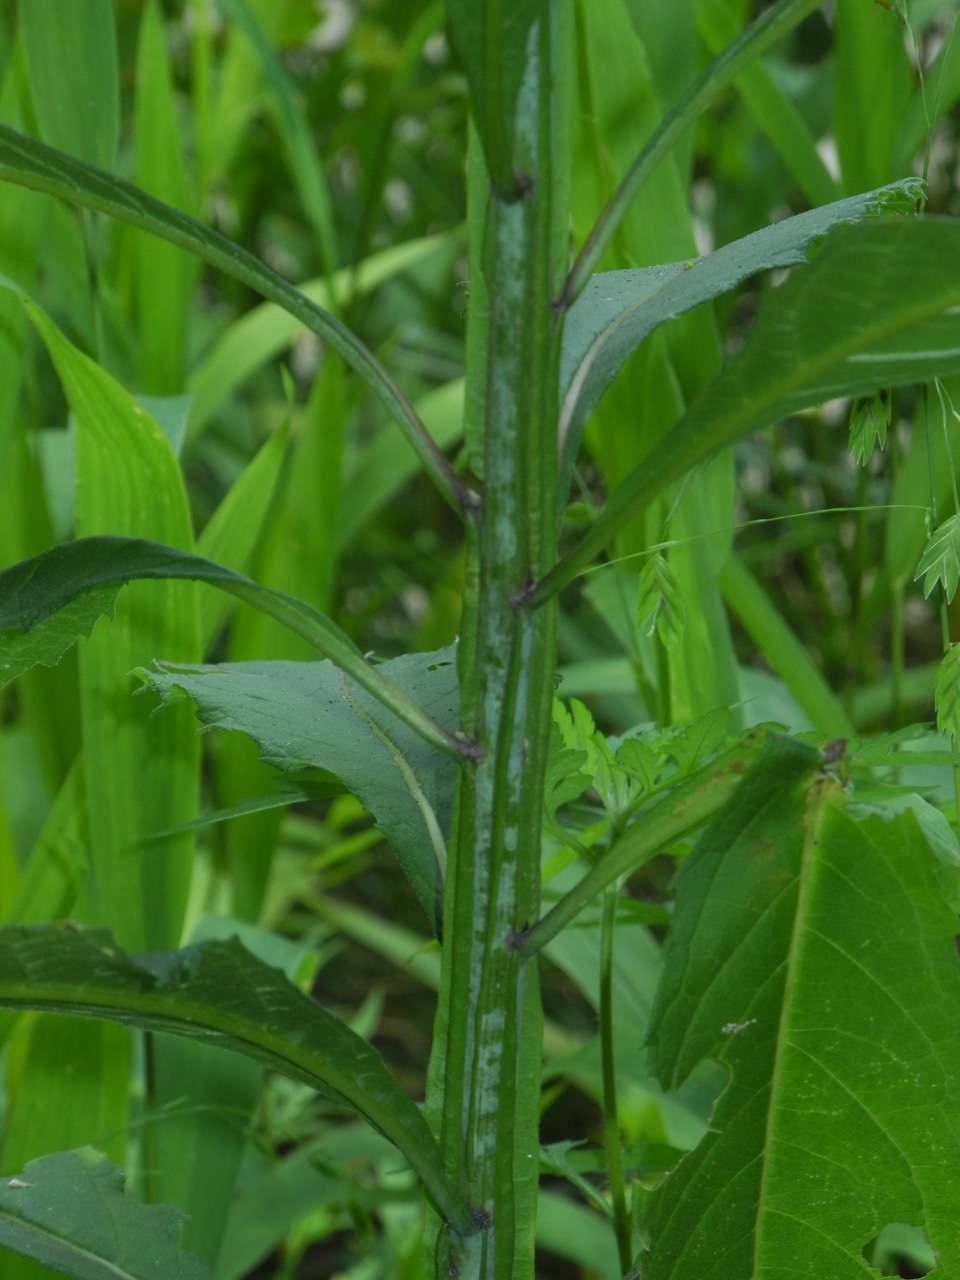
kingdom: Plantae
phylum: Tracheophyta
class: Magnoliopsida
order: Asterales
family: Asteraceae
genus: Verbesina
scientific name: Verbesina alternifolia
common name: Wingstem
